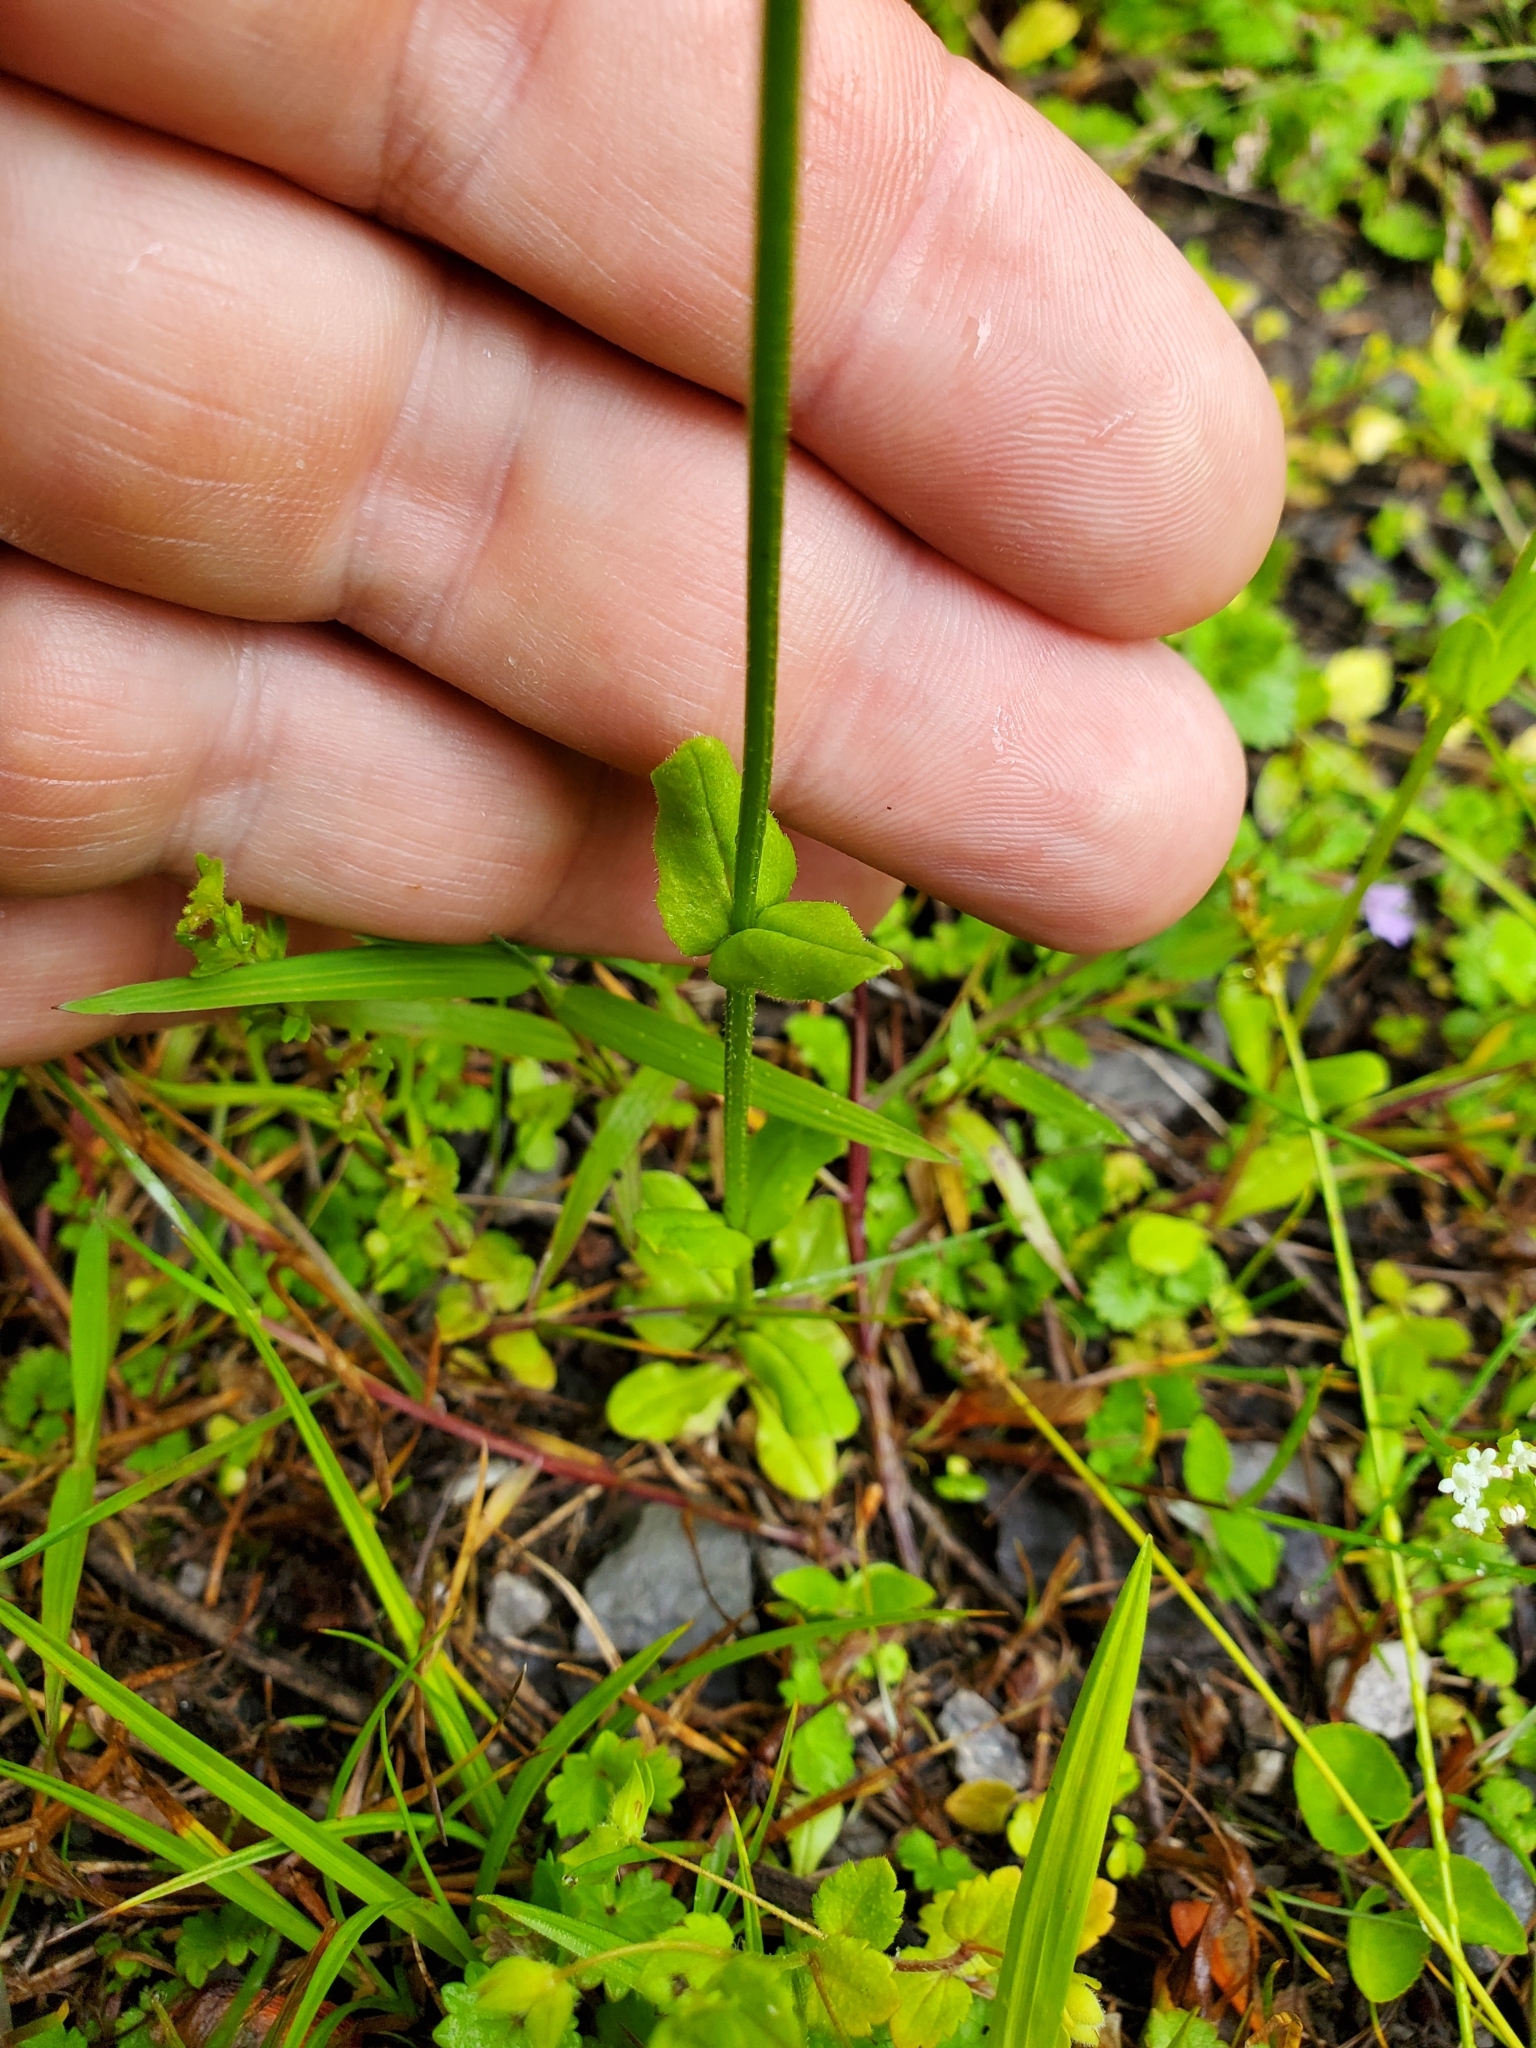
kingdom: Plantae
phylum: Tracheophyta
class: Magnoliopsida
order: Dipsacales
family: Caprifoliaceae
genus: Valerianella
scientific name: Valerianella radiata
